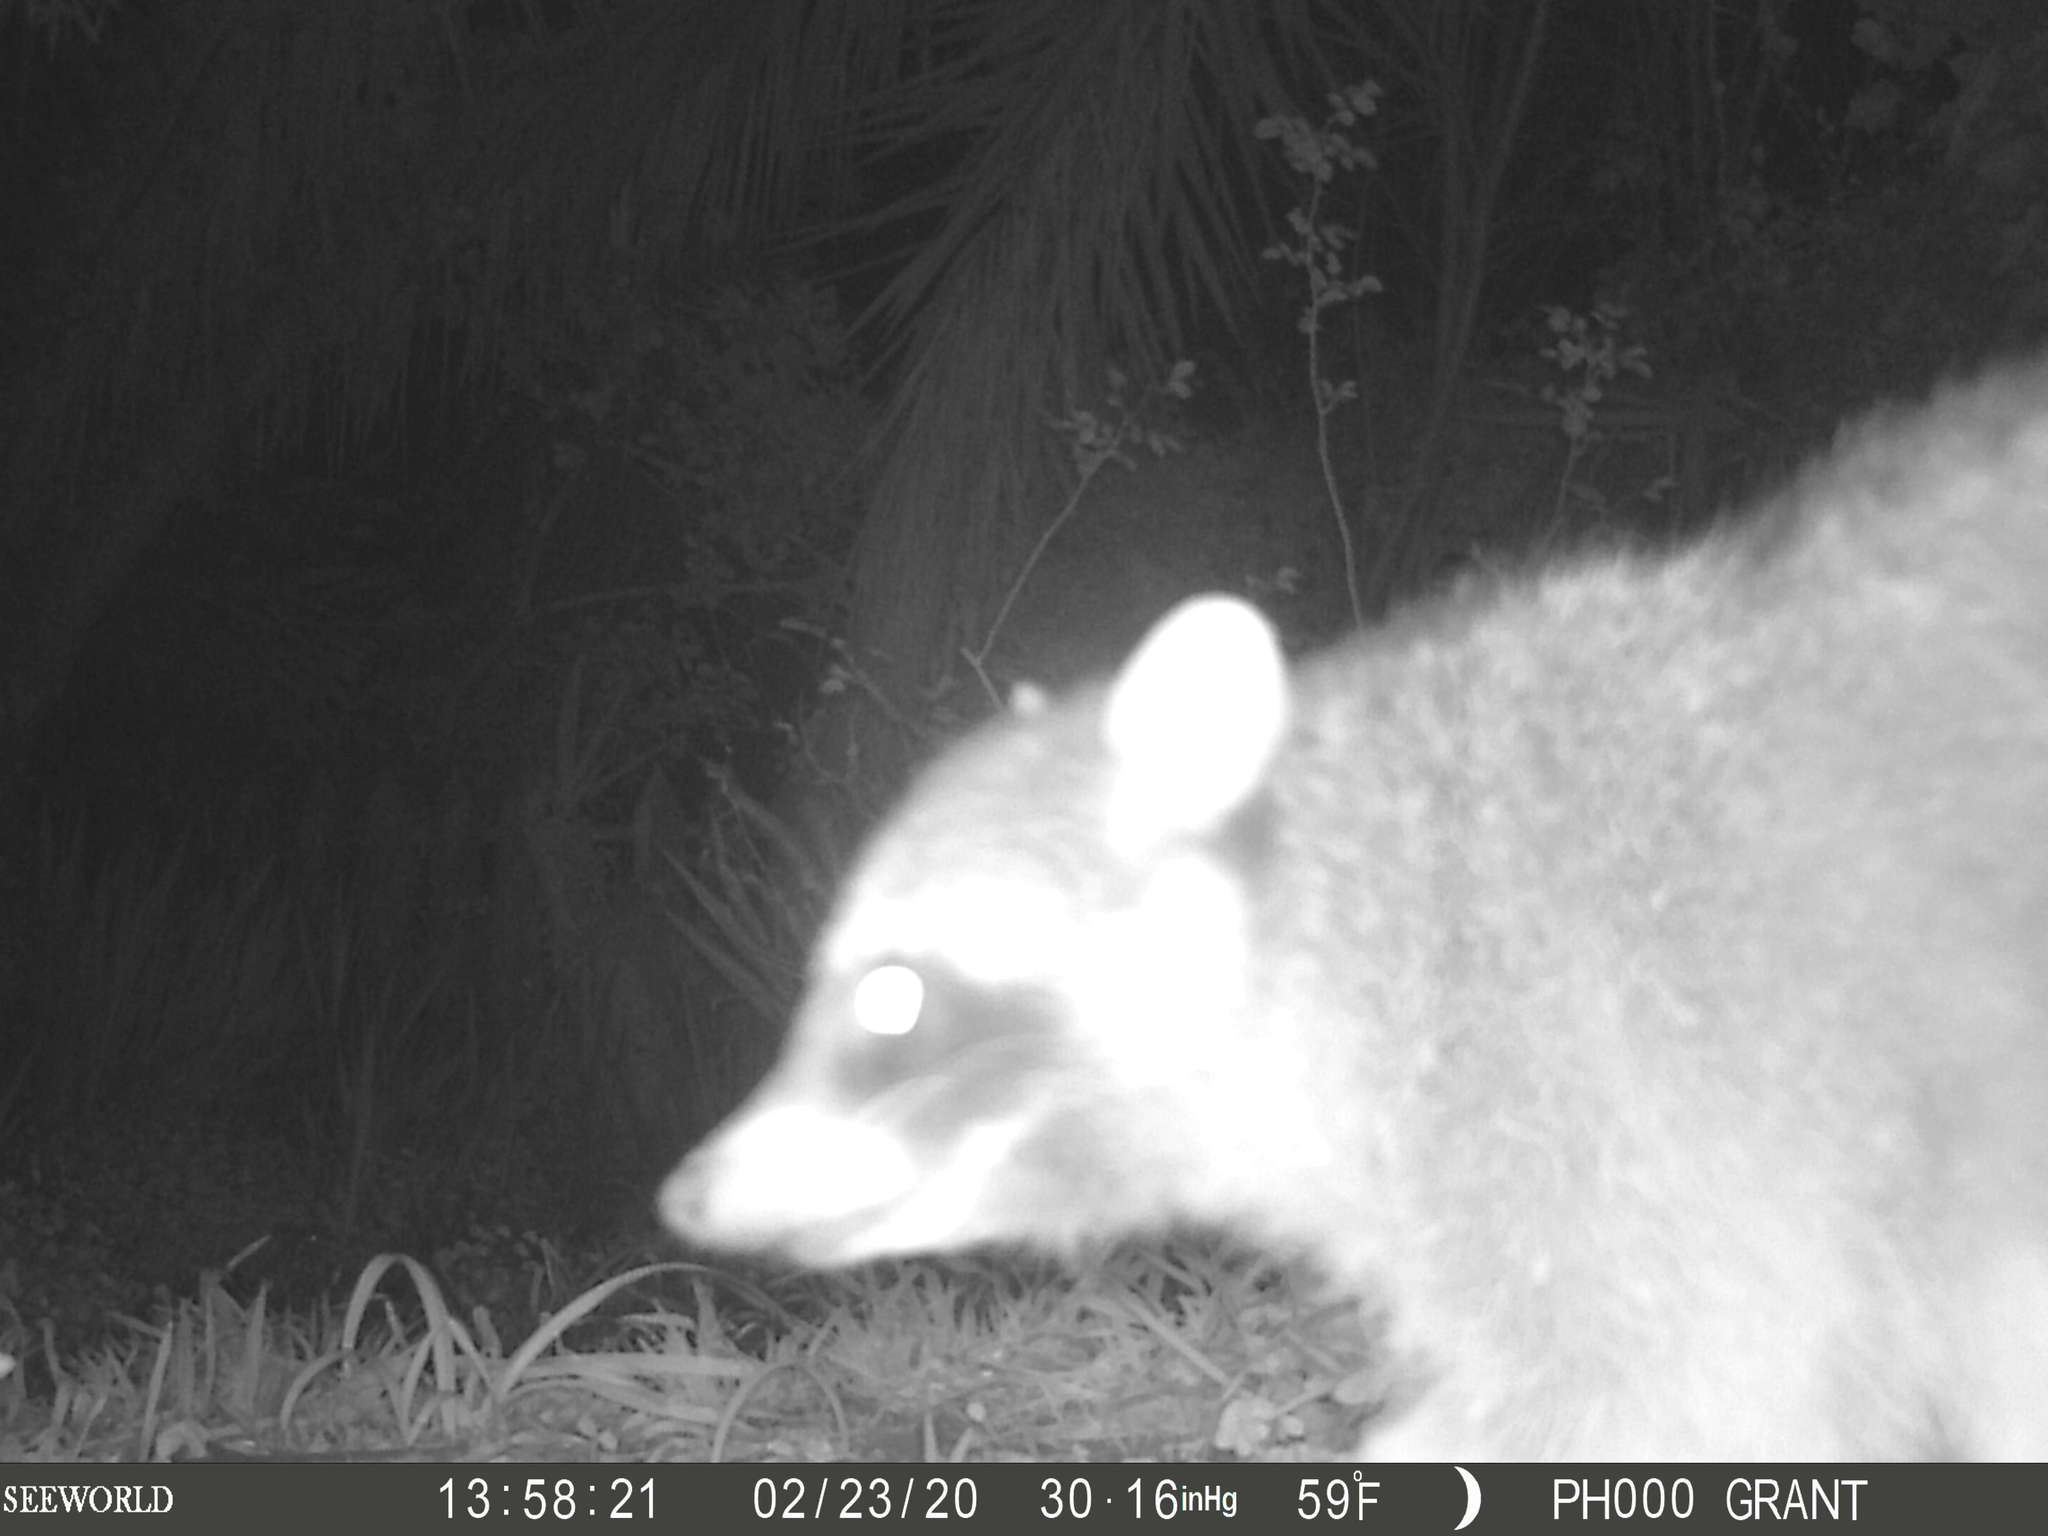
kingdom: Animalia
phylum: Chordata
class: Mammalia
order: Carnivora
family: Procyonidae
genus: Procyon
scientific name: Procyon lotor
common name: Raccoon
